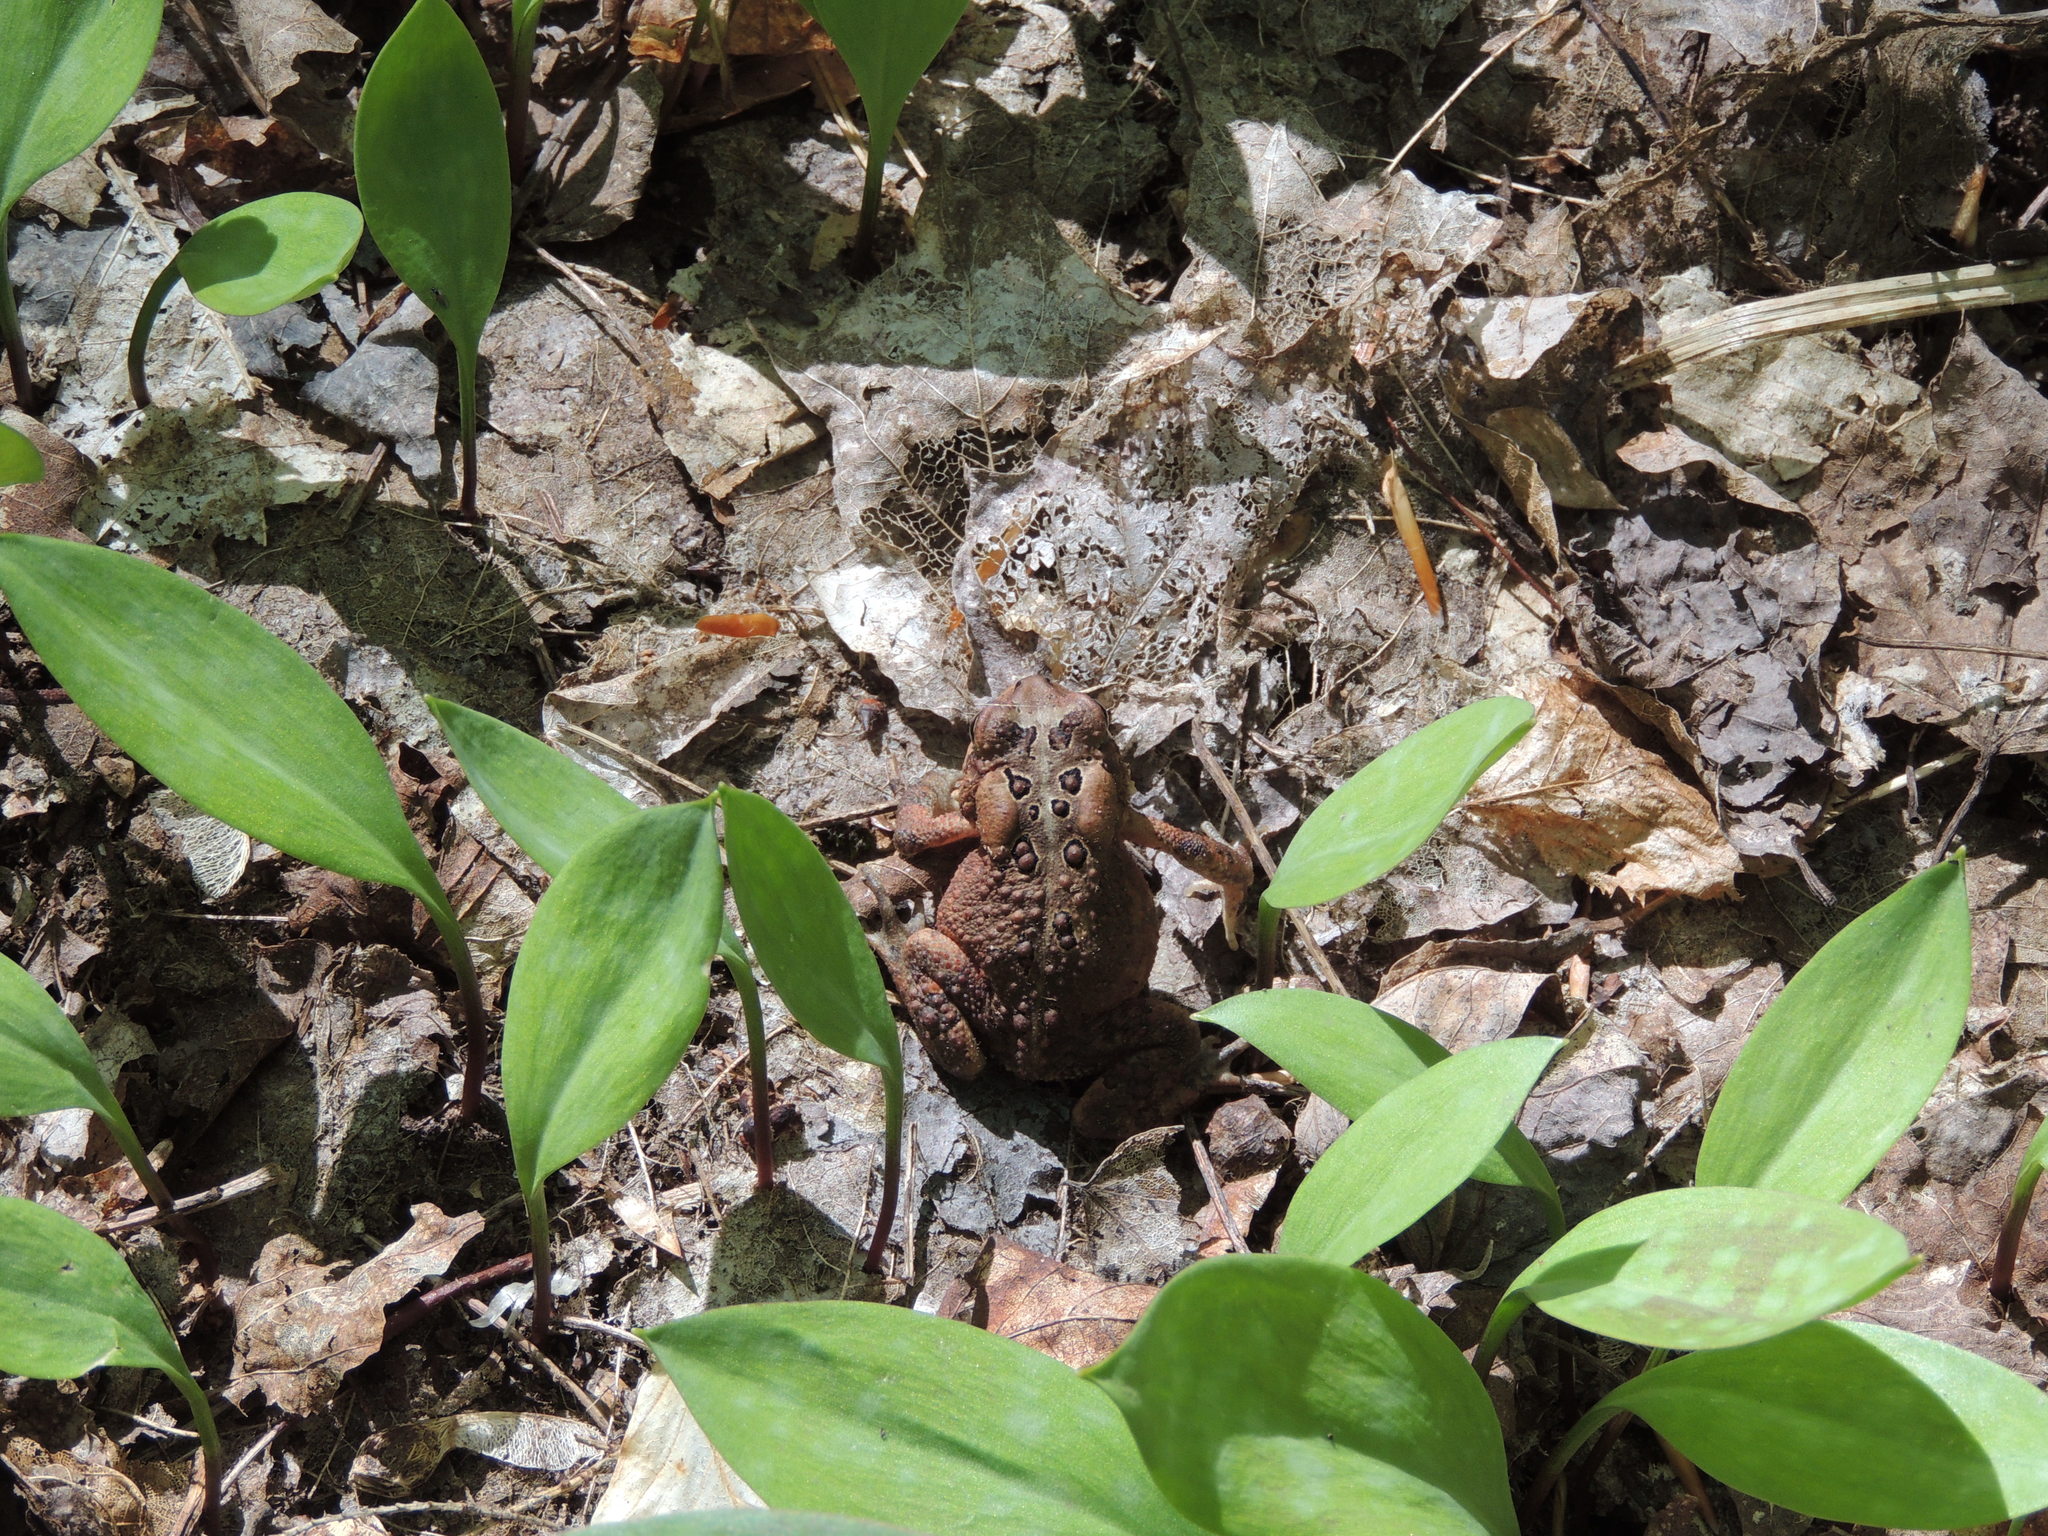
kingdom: Animalia
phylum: Chordata
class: Amphibia
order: Anura
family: Bufonidae
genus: Anaxyrus
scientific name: Anaxyrus americanus
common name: American toad
